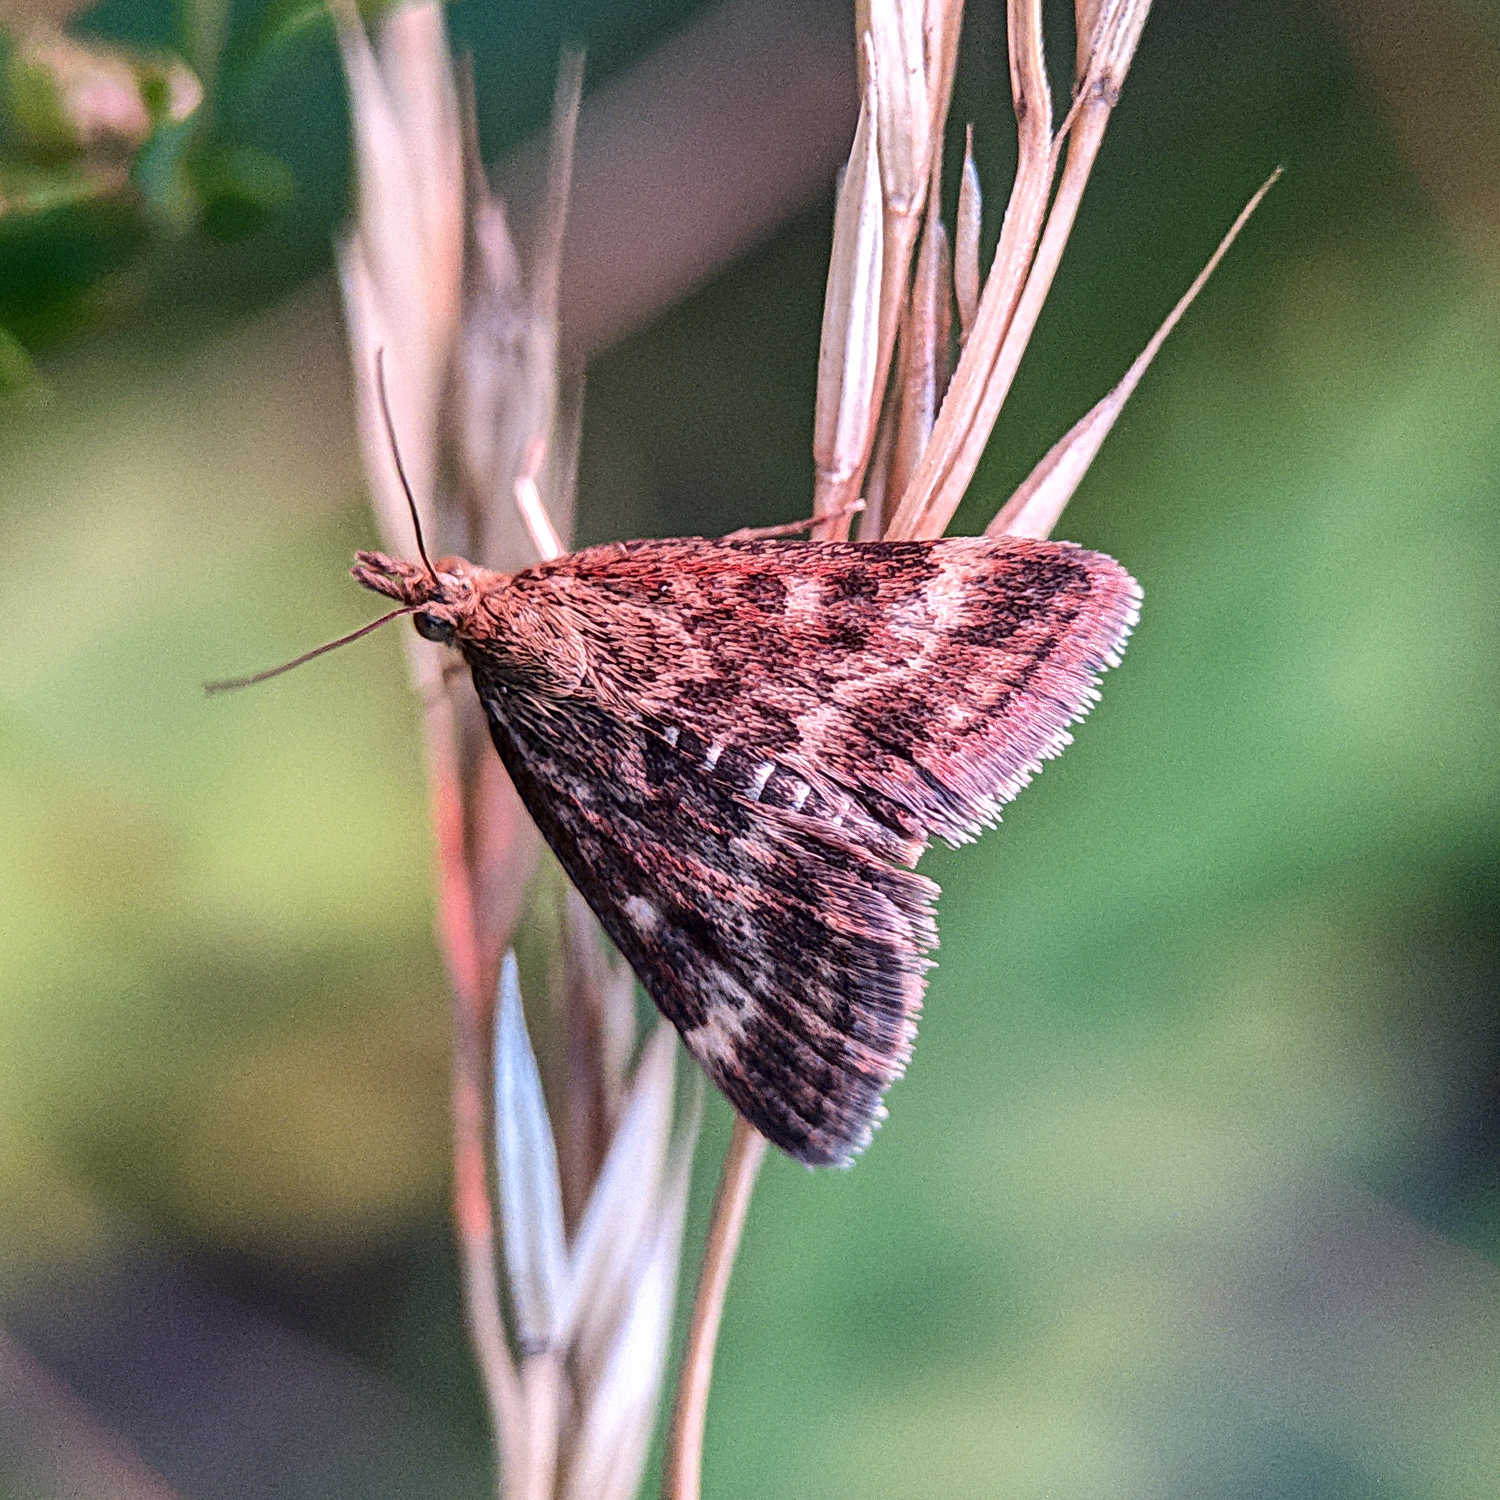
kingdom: Animalia
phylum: Arthropoda
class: Insecta
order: Lepidoptera
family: Crambidae
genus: Pyrausta
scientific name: Pyrausta despicata
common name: Straw-barred pearl
